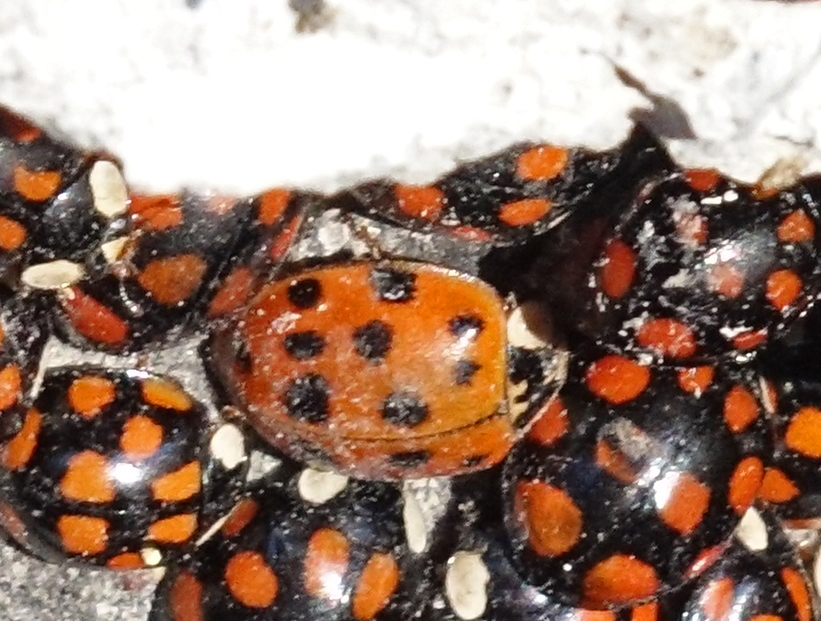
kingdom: Animalia
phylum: Arthropoda
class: Insecta
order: Coleoptera
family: Coccinellidae
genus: Harmonia
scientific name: Harmonia axyridis
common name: Harlequin ladybird
